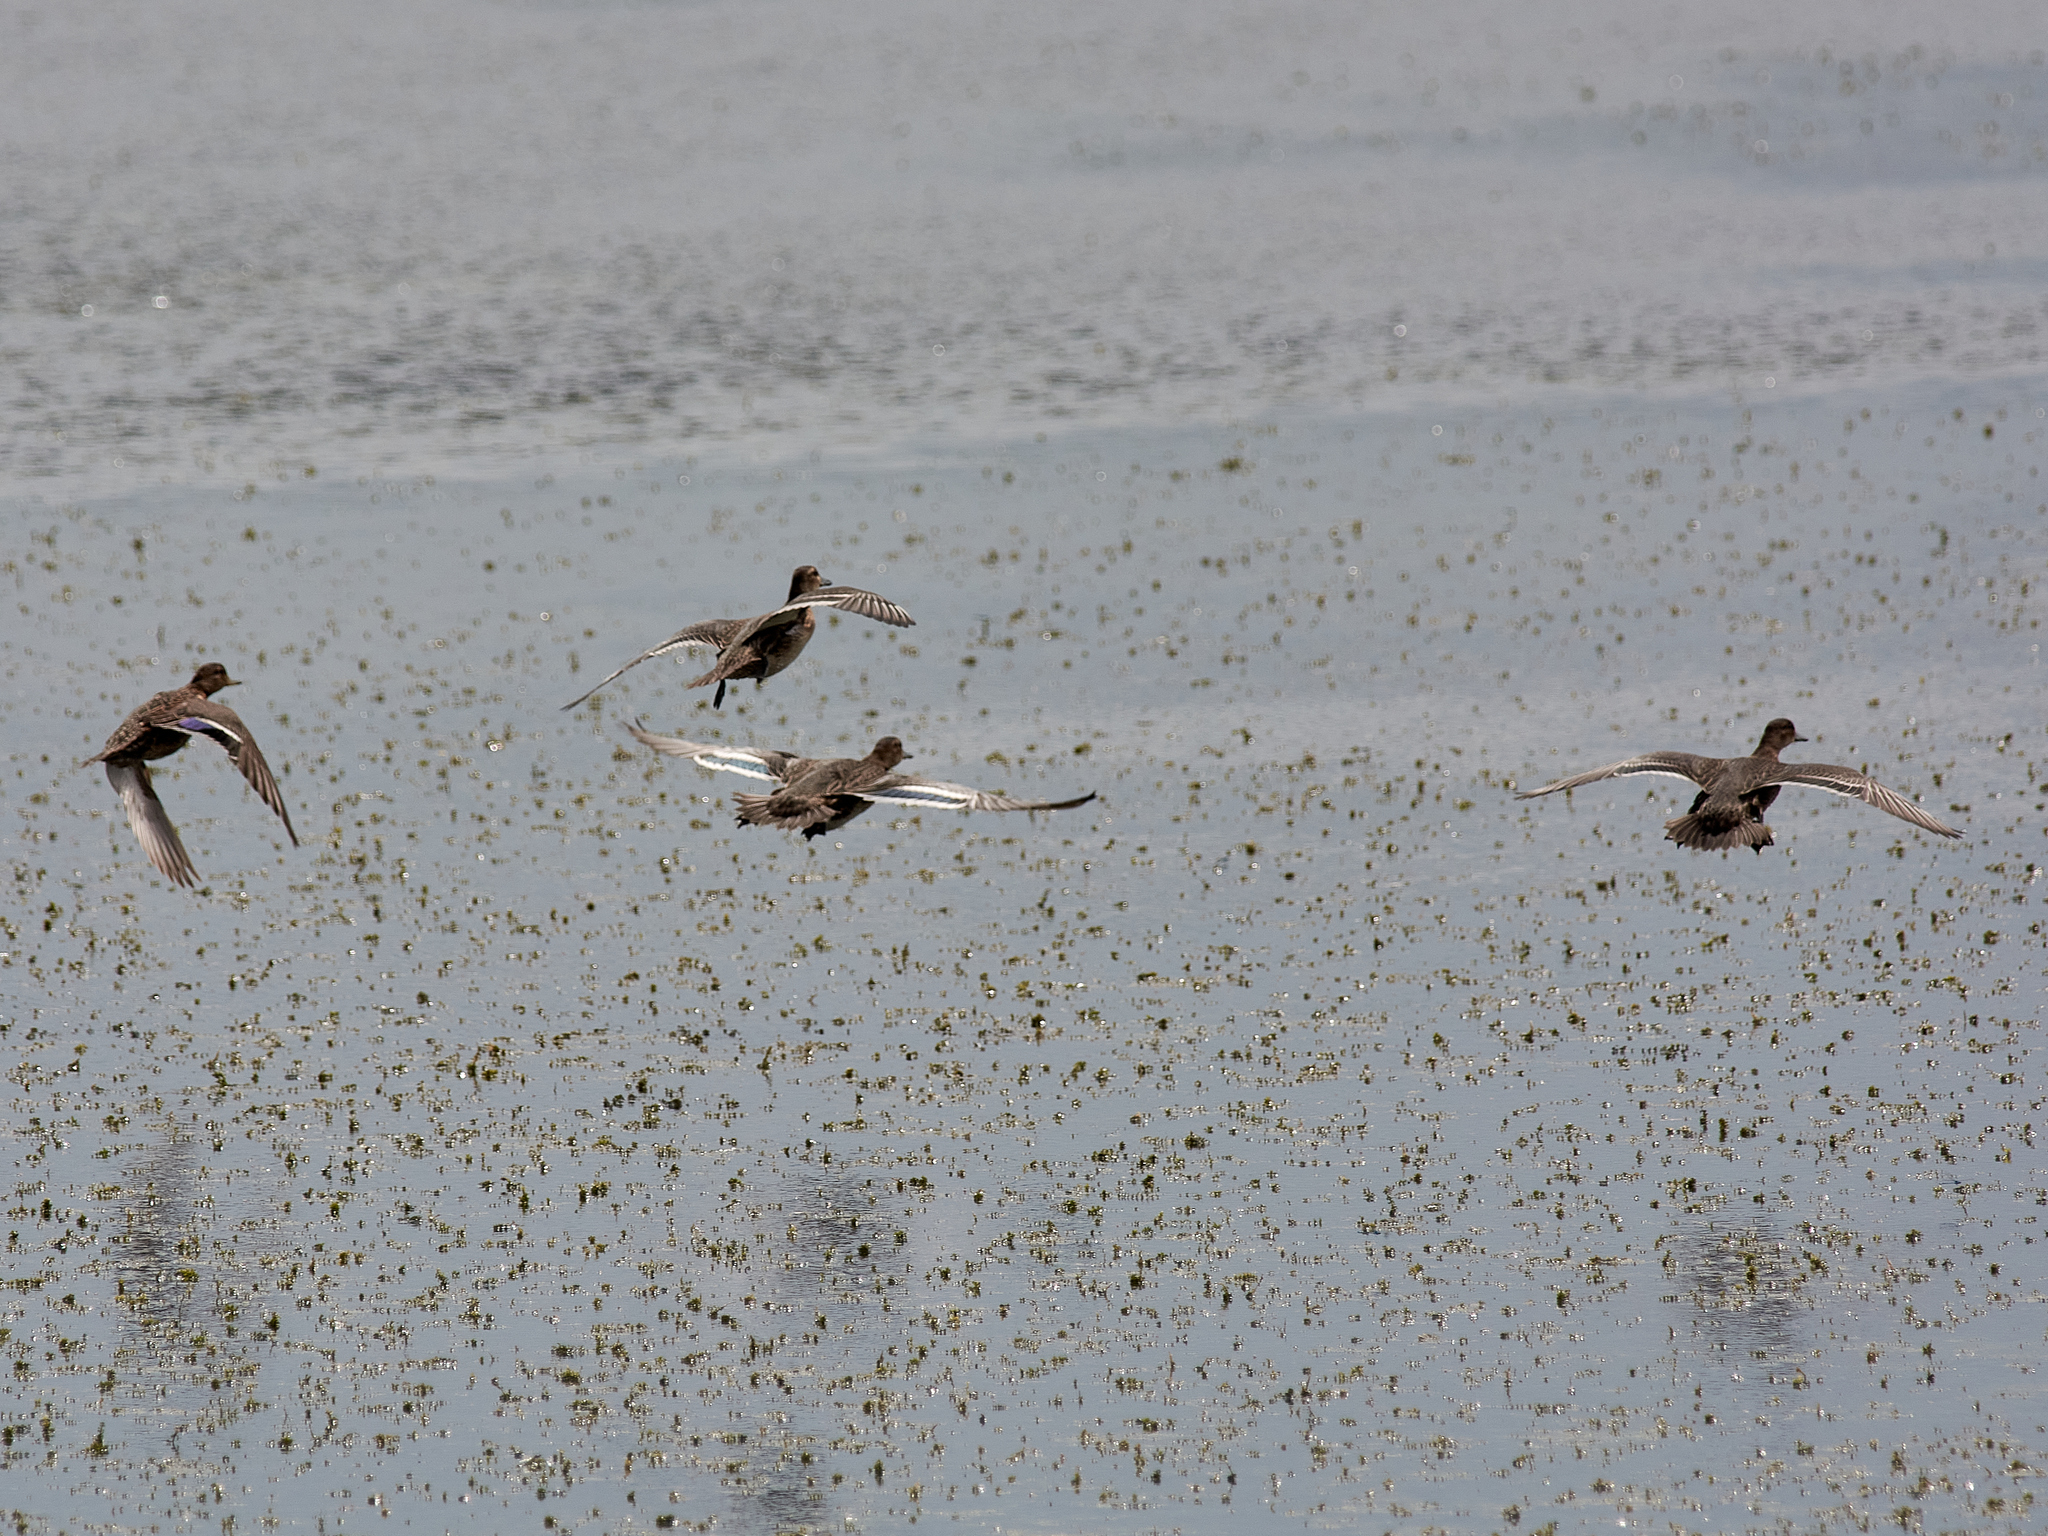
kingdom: Animalia
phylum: Chordata
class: Aves
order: Anseriformes
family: Anatidae
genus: Anas
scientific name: Anas platyrhynchos
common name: Mallard
